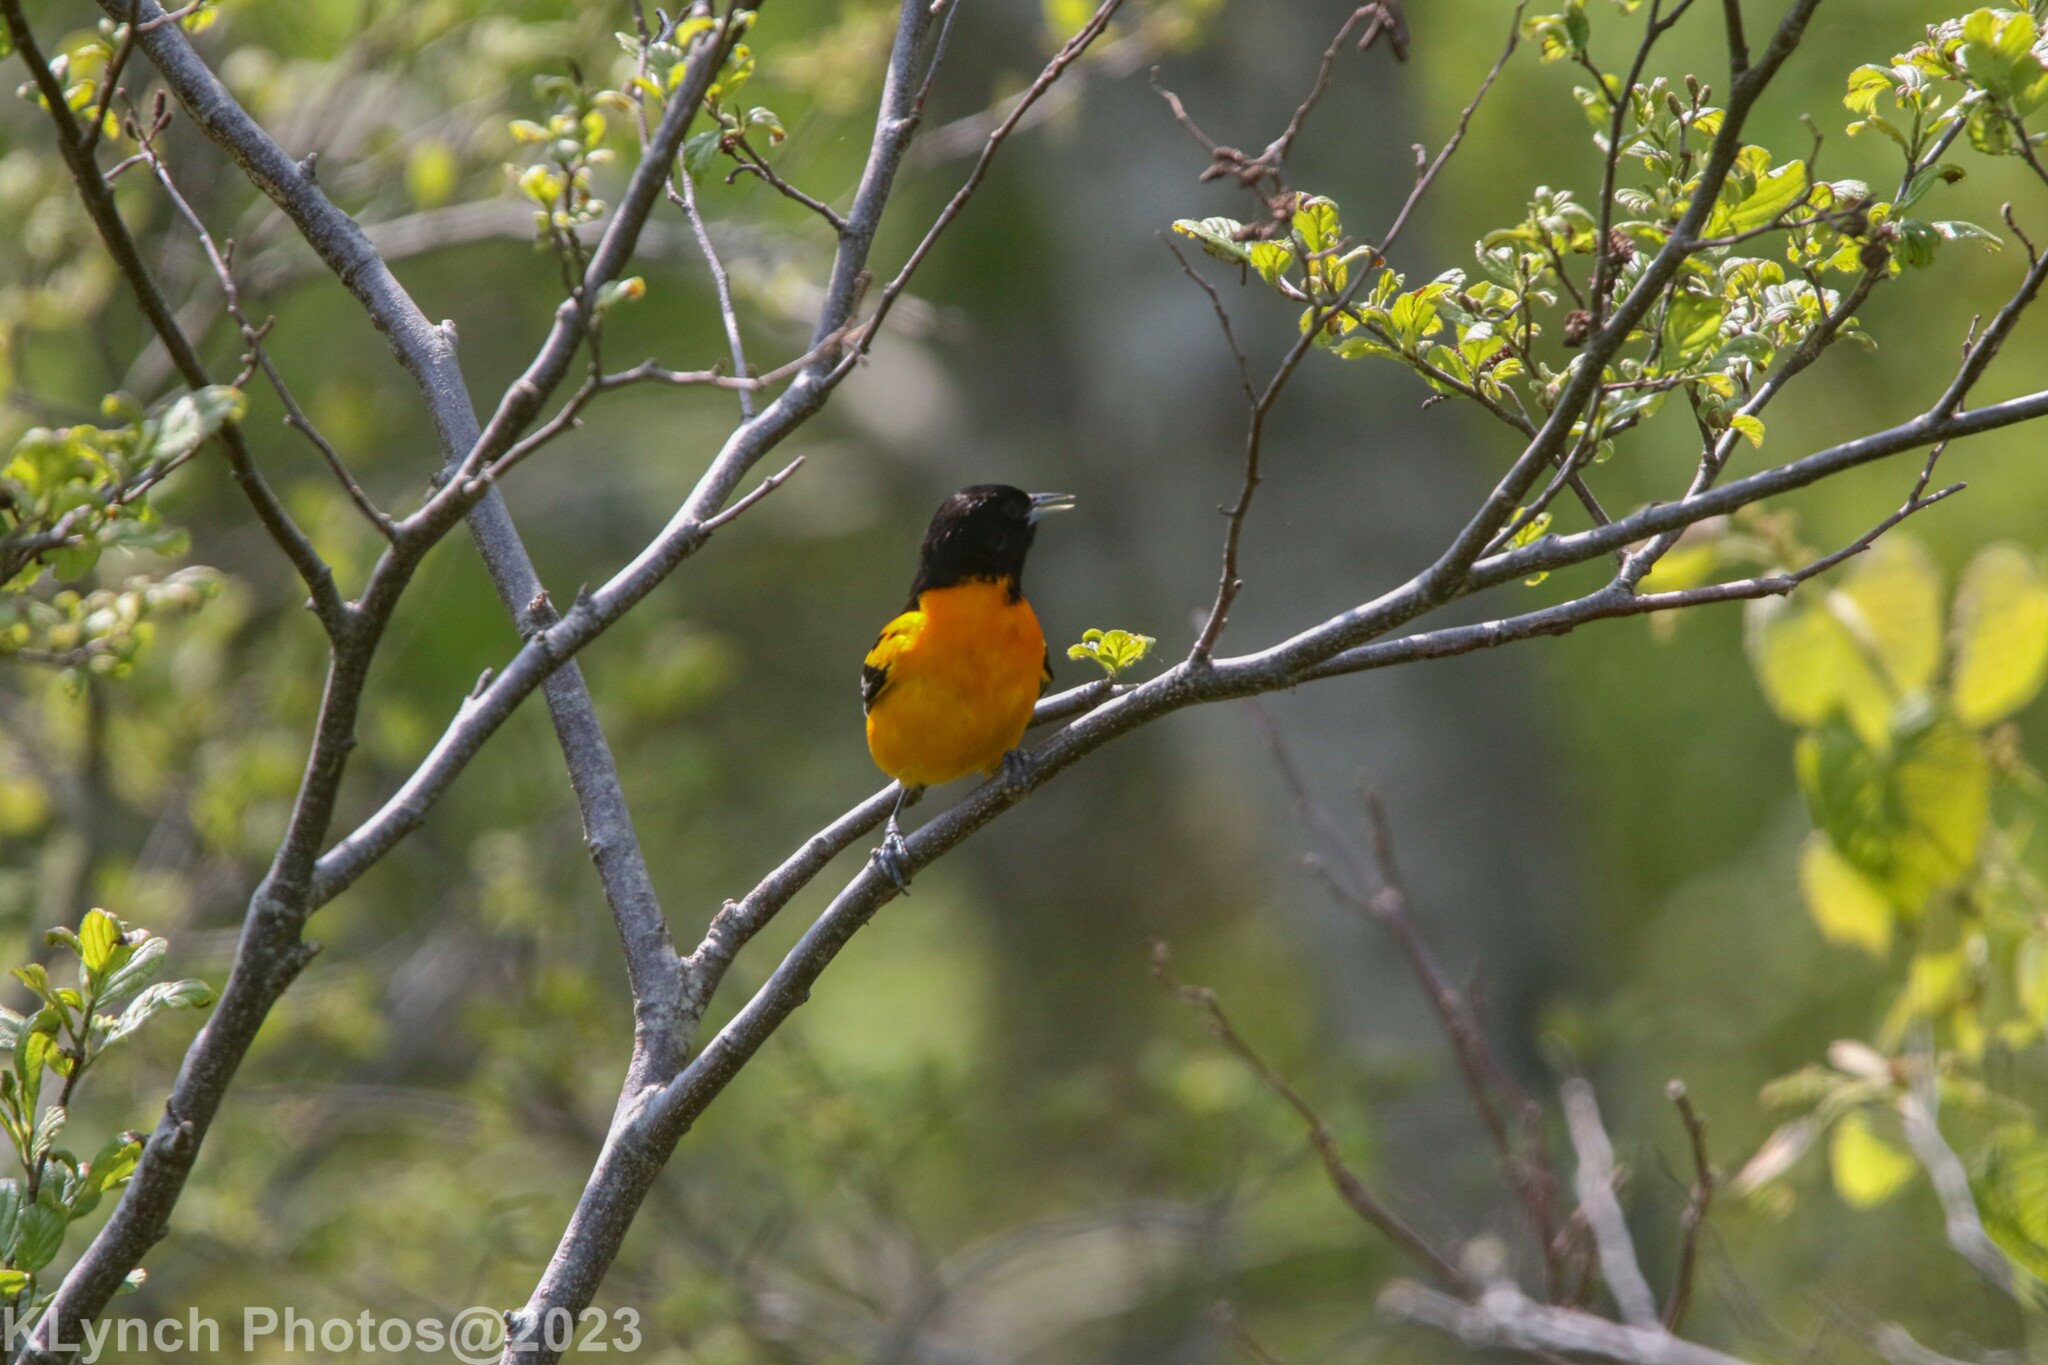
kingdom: Animalia
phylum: Chordata
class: Aves
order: Passeriformes
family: Icteridae
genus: Icterus
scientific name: Icterus galbula
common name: Baltimore oriole
